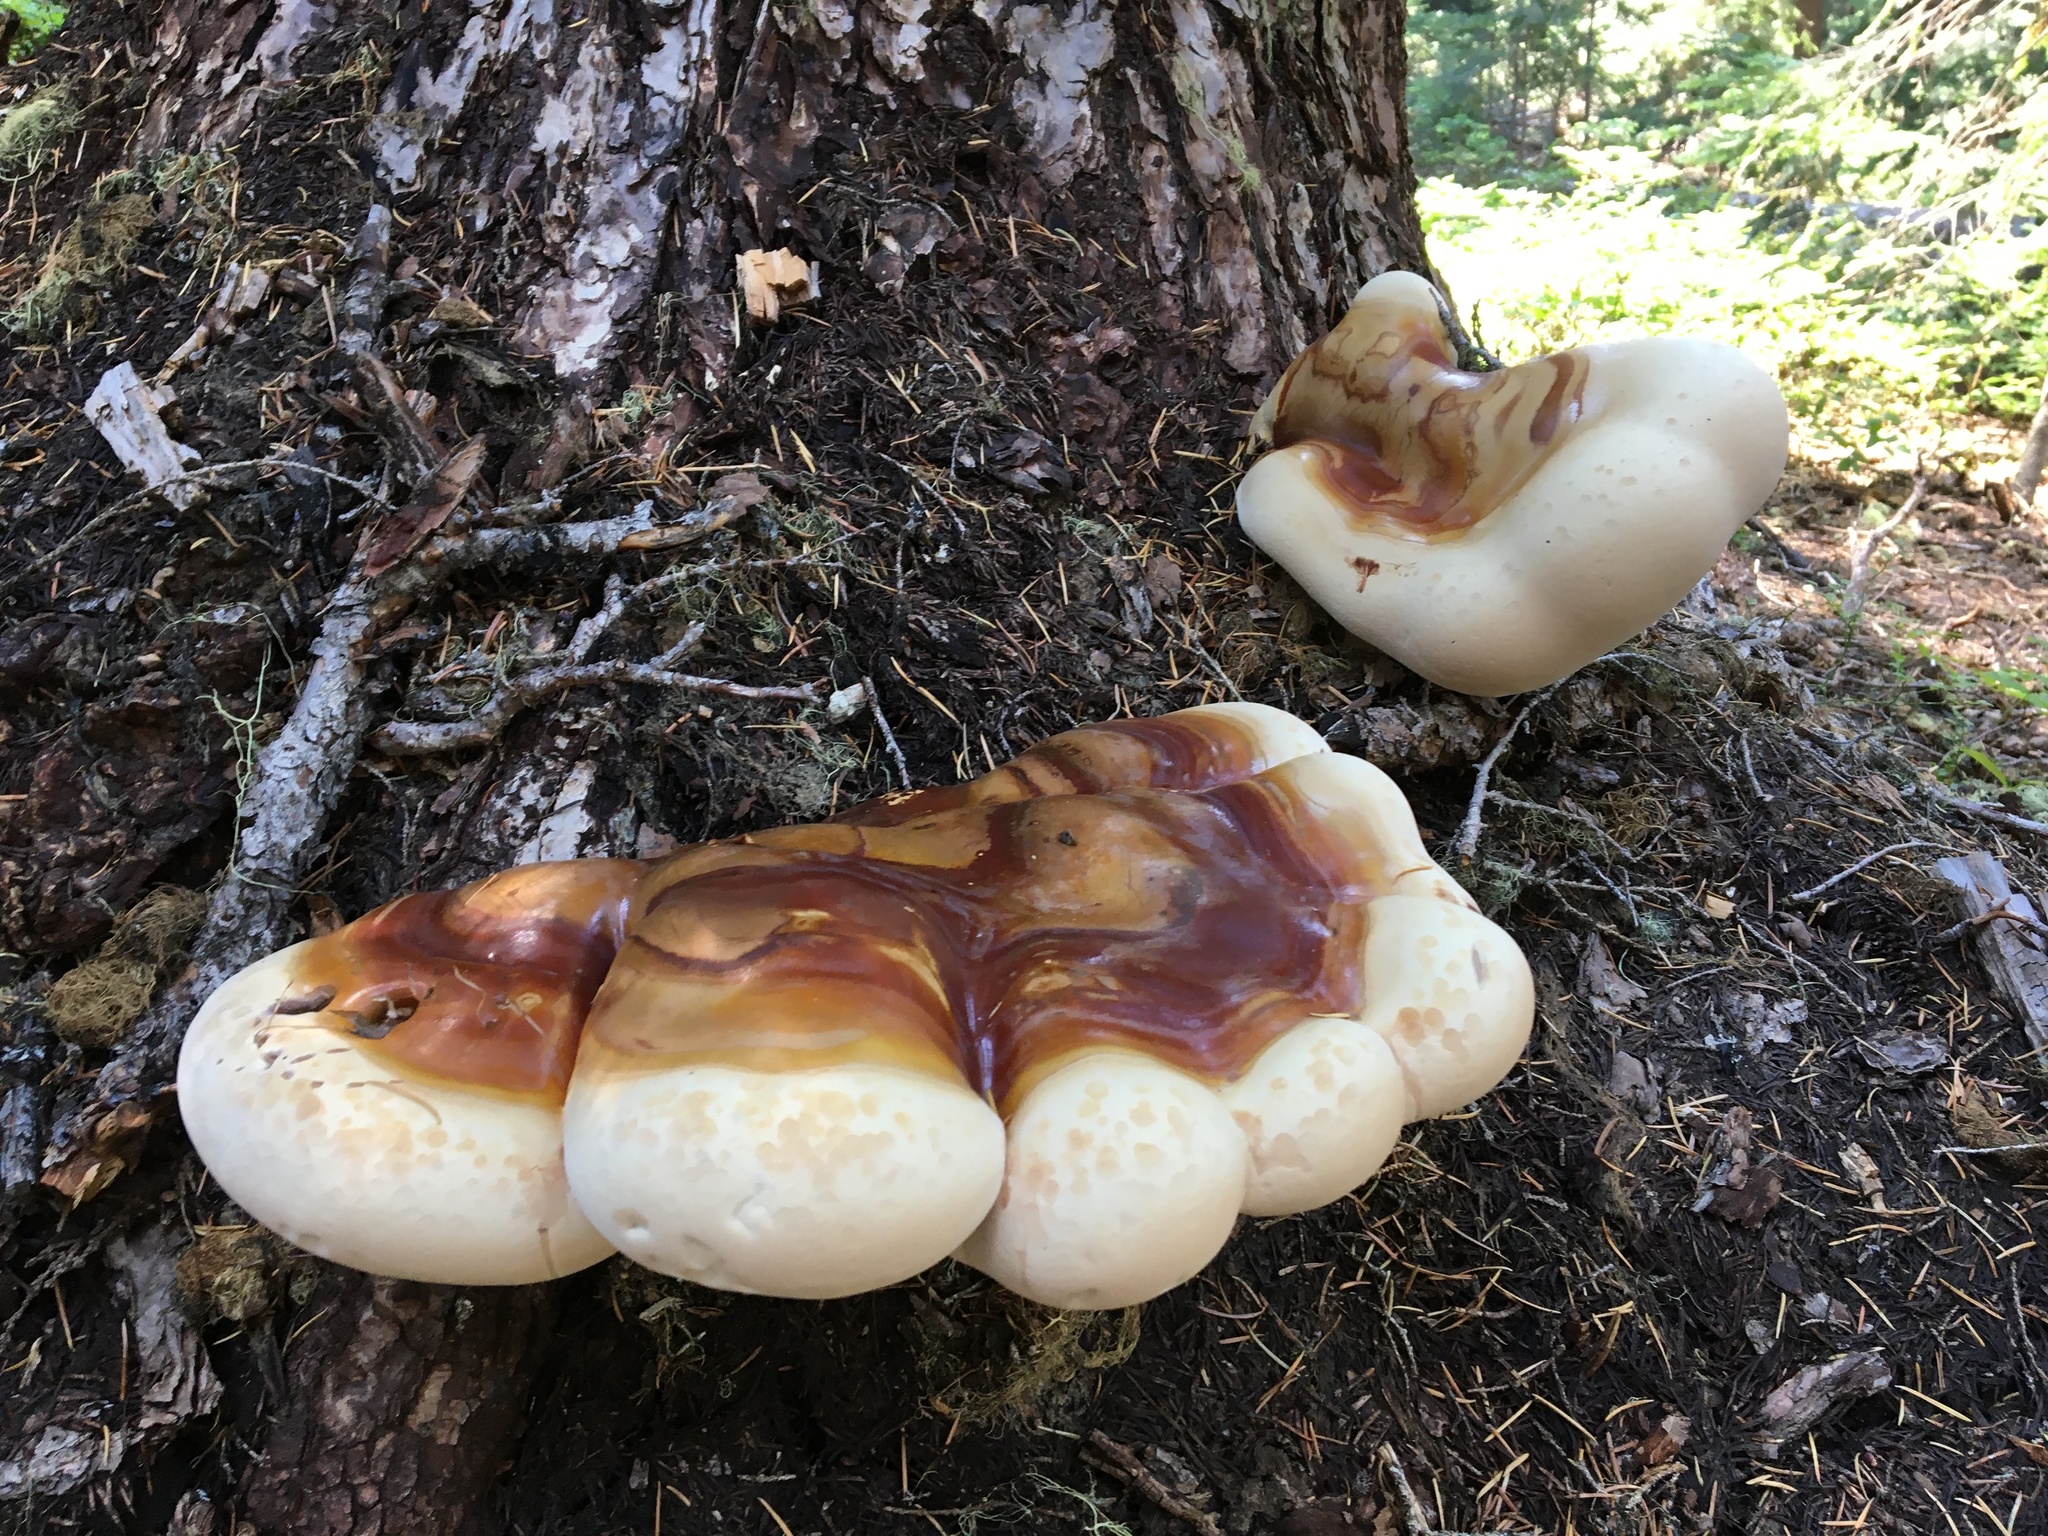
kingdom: Fungi
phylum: Basidiomycota
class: Agaricomycetes
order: Polyporales
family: Polyporaceae
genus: Ganoderma
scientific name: Ganoderma oregonense
